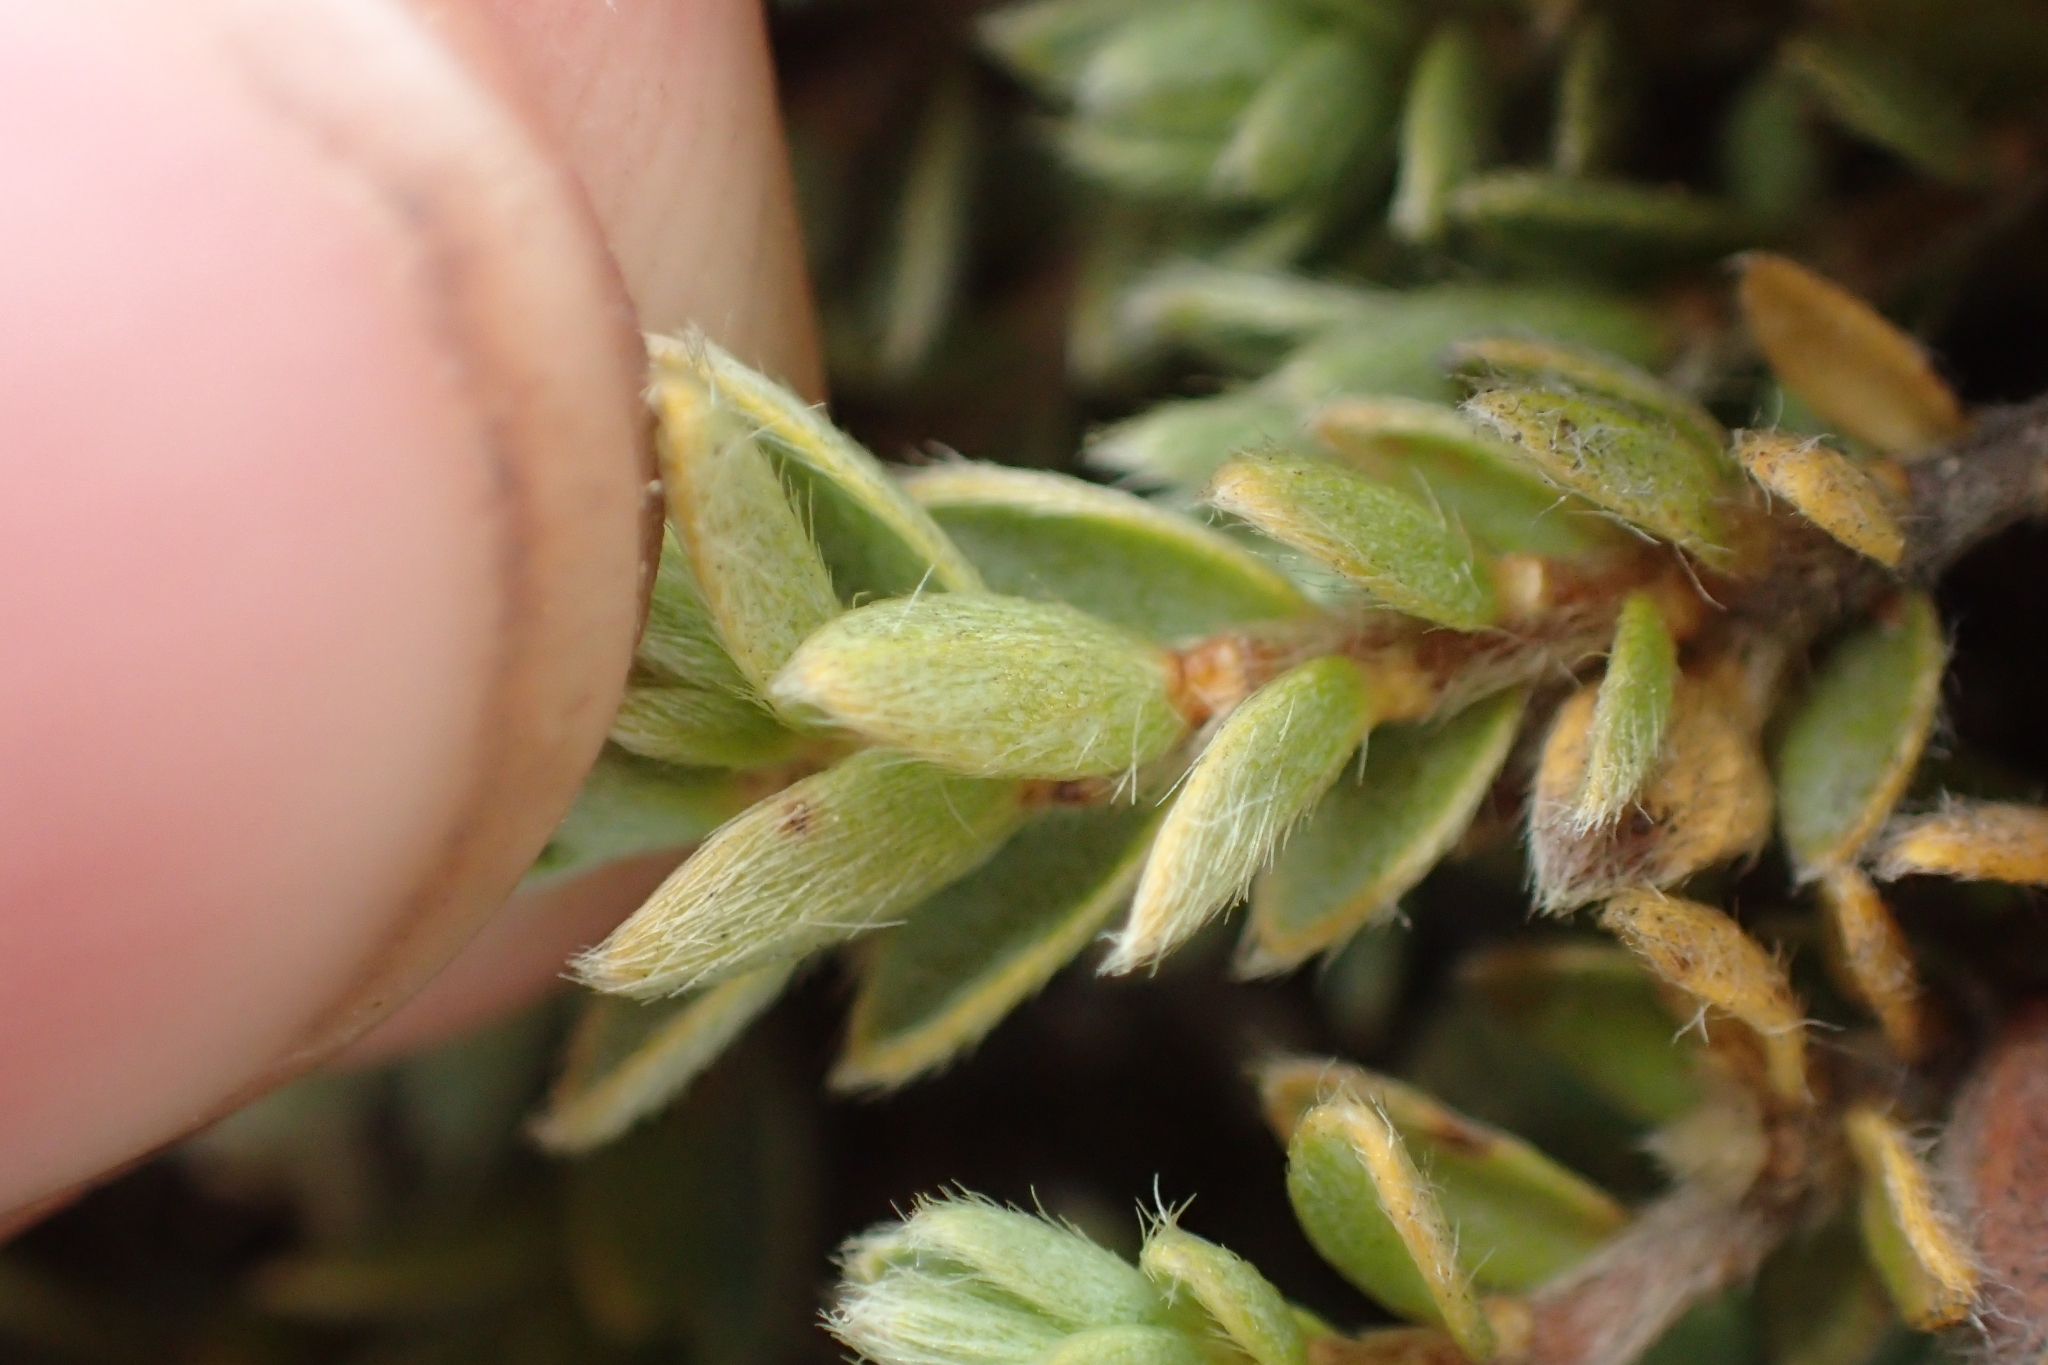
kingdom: Plantae
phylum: Tracheophyta
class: Magnoliopsida
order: Malvales
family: Thymelaeaceae
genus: Pimelea
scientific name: Pimelea oreophila
